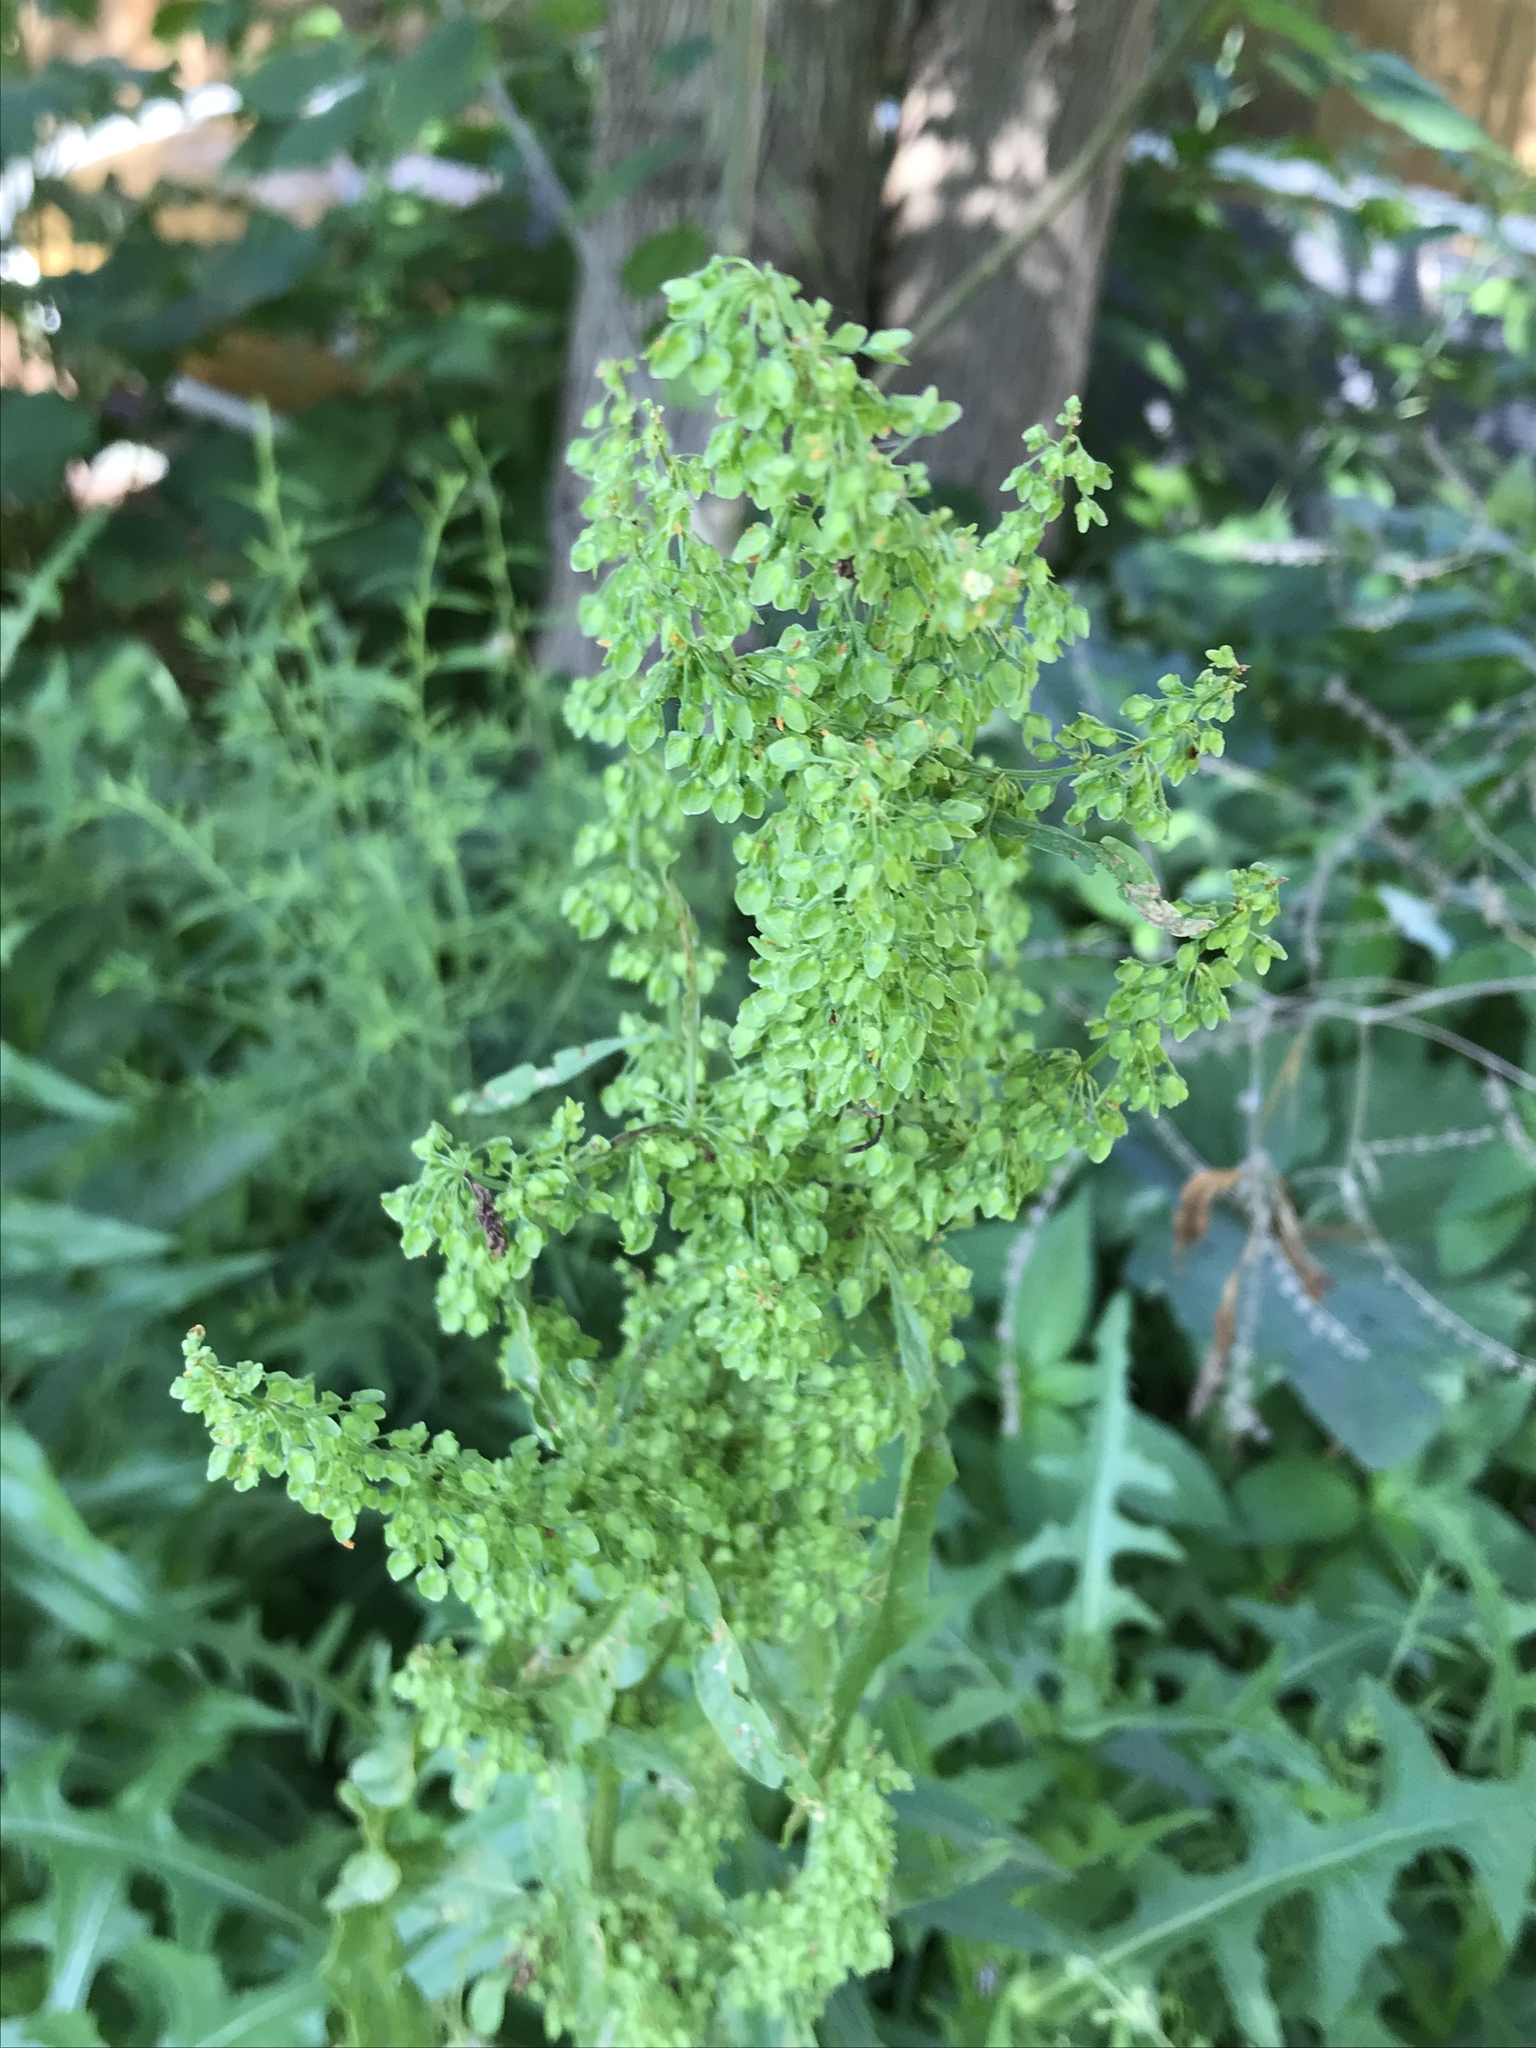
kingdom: Plantae
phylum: Tracheophyta
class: Magnoliopsida
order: Caryophyllales
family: Polygonaceae
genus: Rumex
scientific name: Rumex crispus
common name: Curled dock
